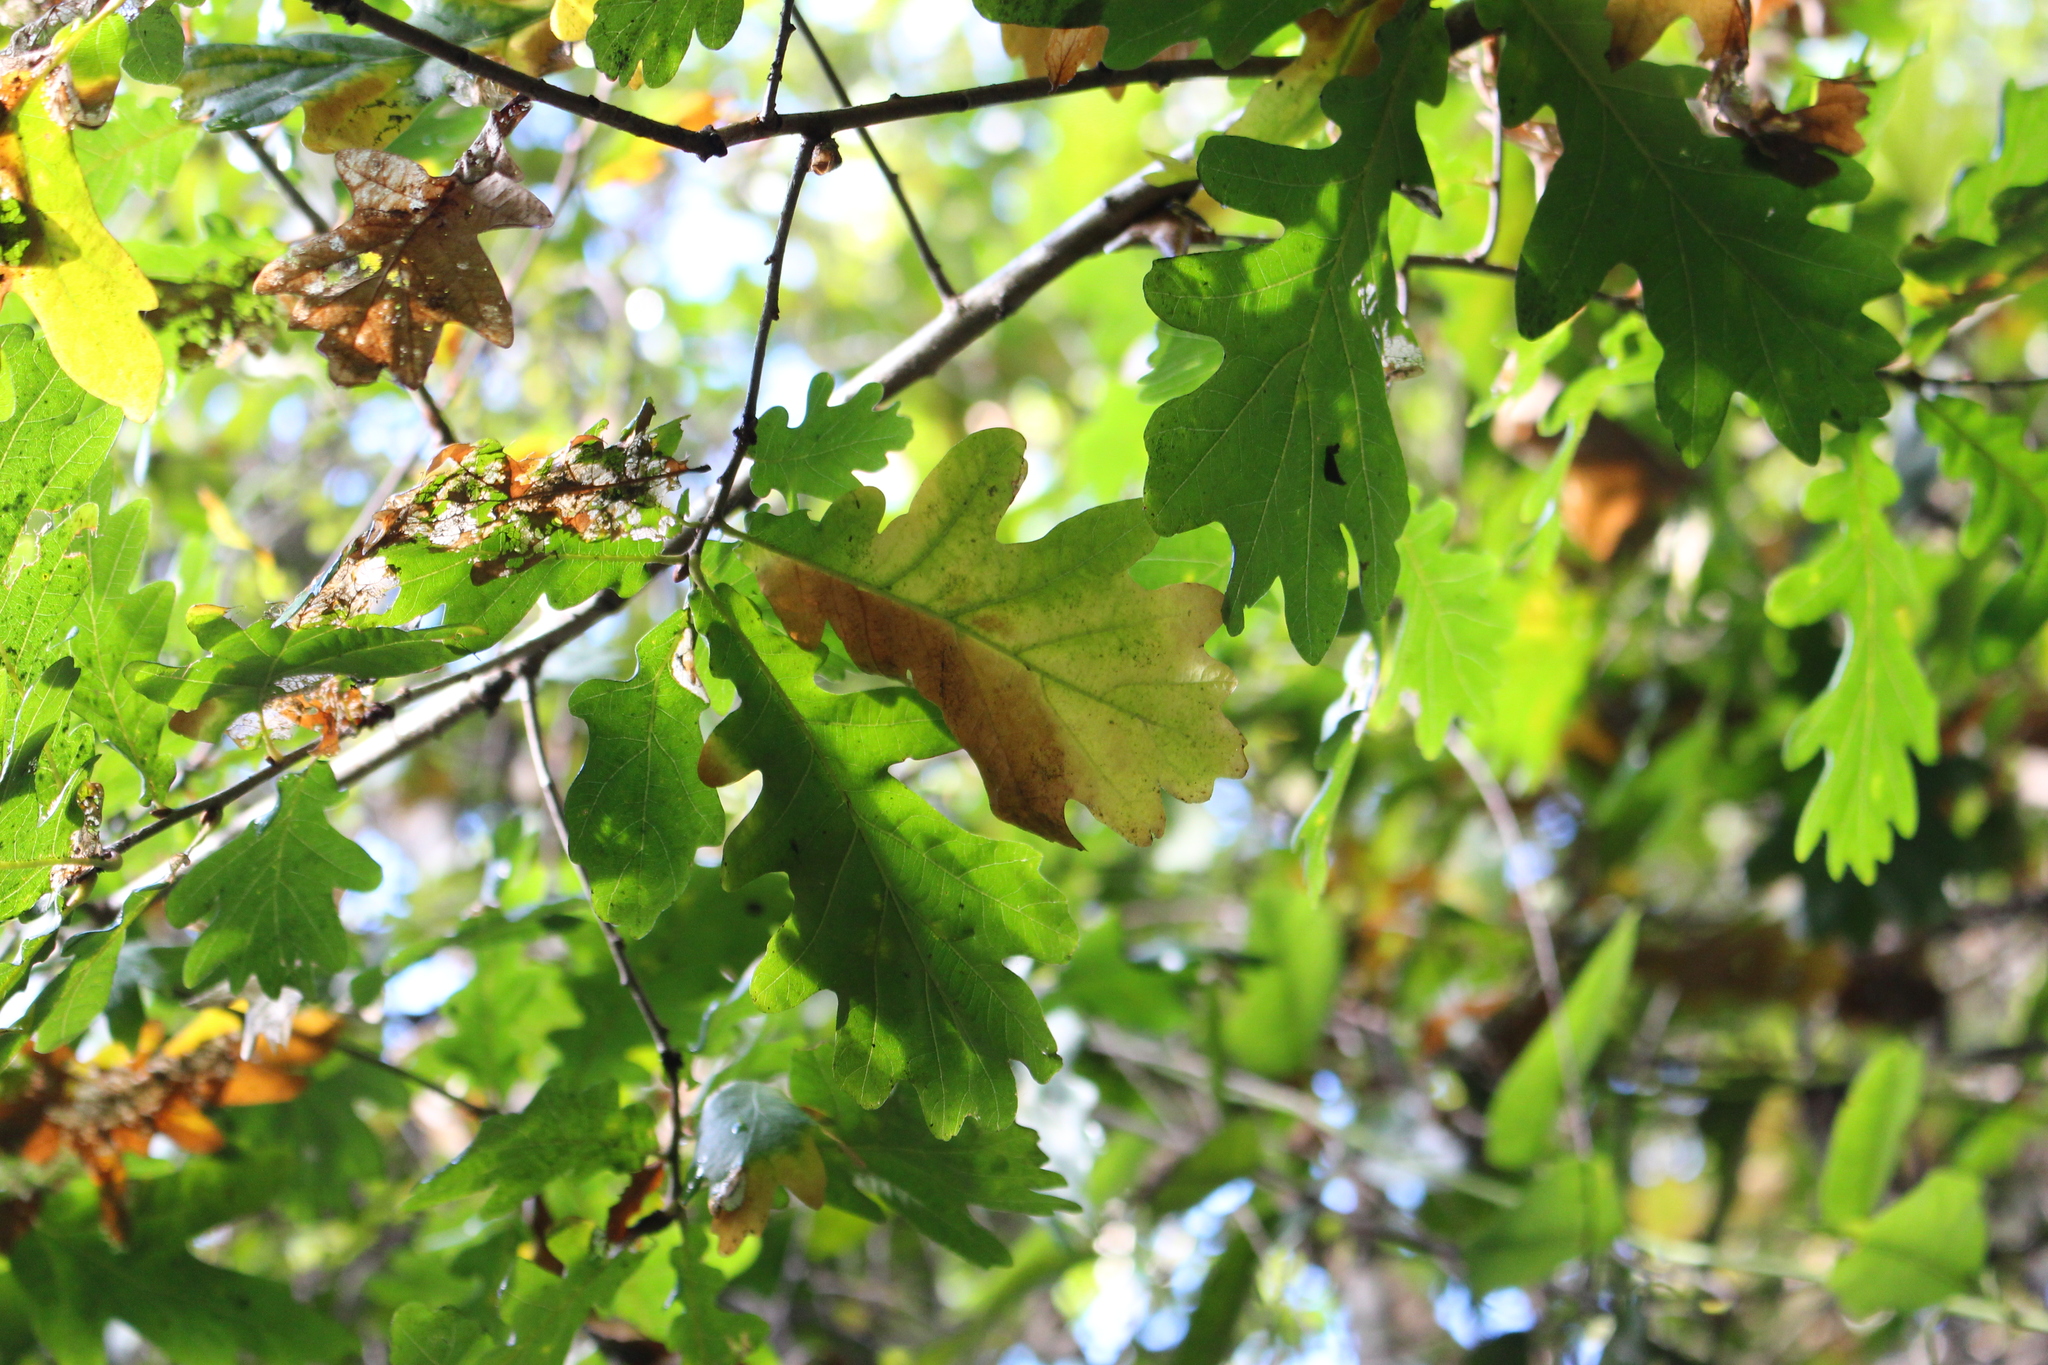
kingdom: Plantae
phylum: Tracheophyta
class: Magnoliopsida
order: Fagales
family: Fagaceae
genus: Quercus
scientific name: Quercus robur
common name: Pedunculate oak
